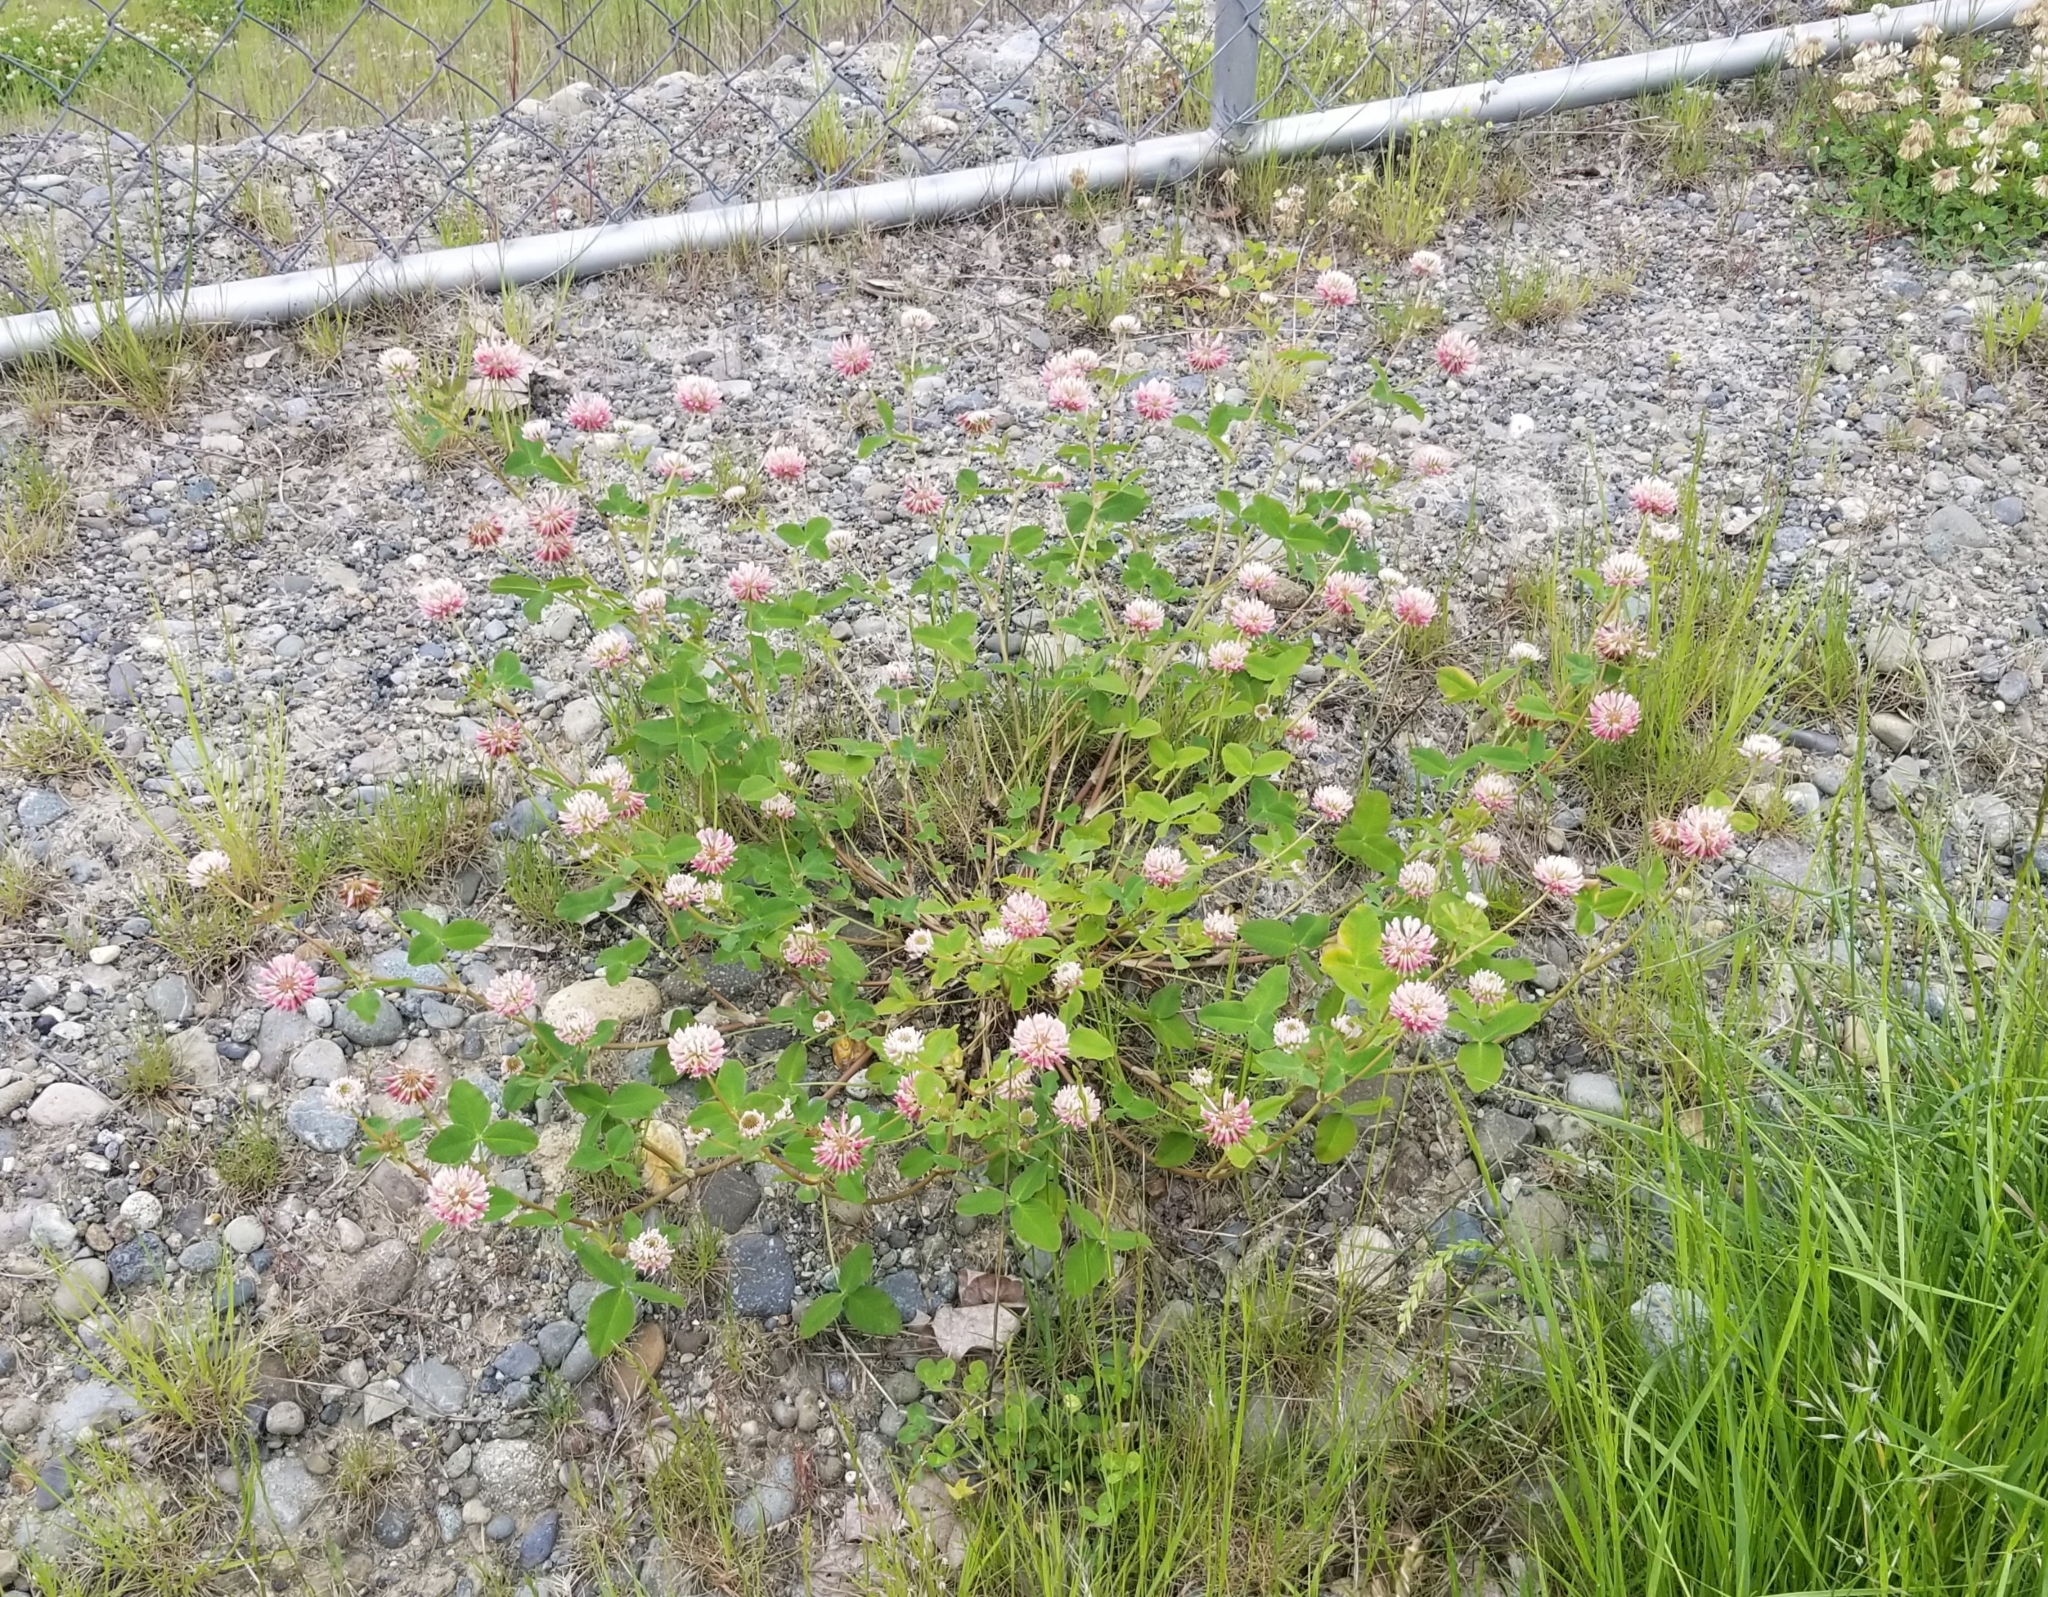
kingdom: Plantae
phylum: Tracheophyta
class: Magnoliopsida
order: Fabales
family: Fabaceae
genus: Trifolium
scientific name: Trifolium hybridum
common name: Alsike clover
